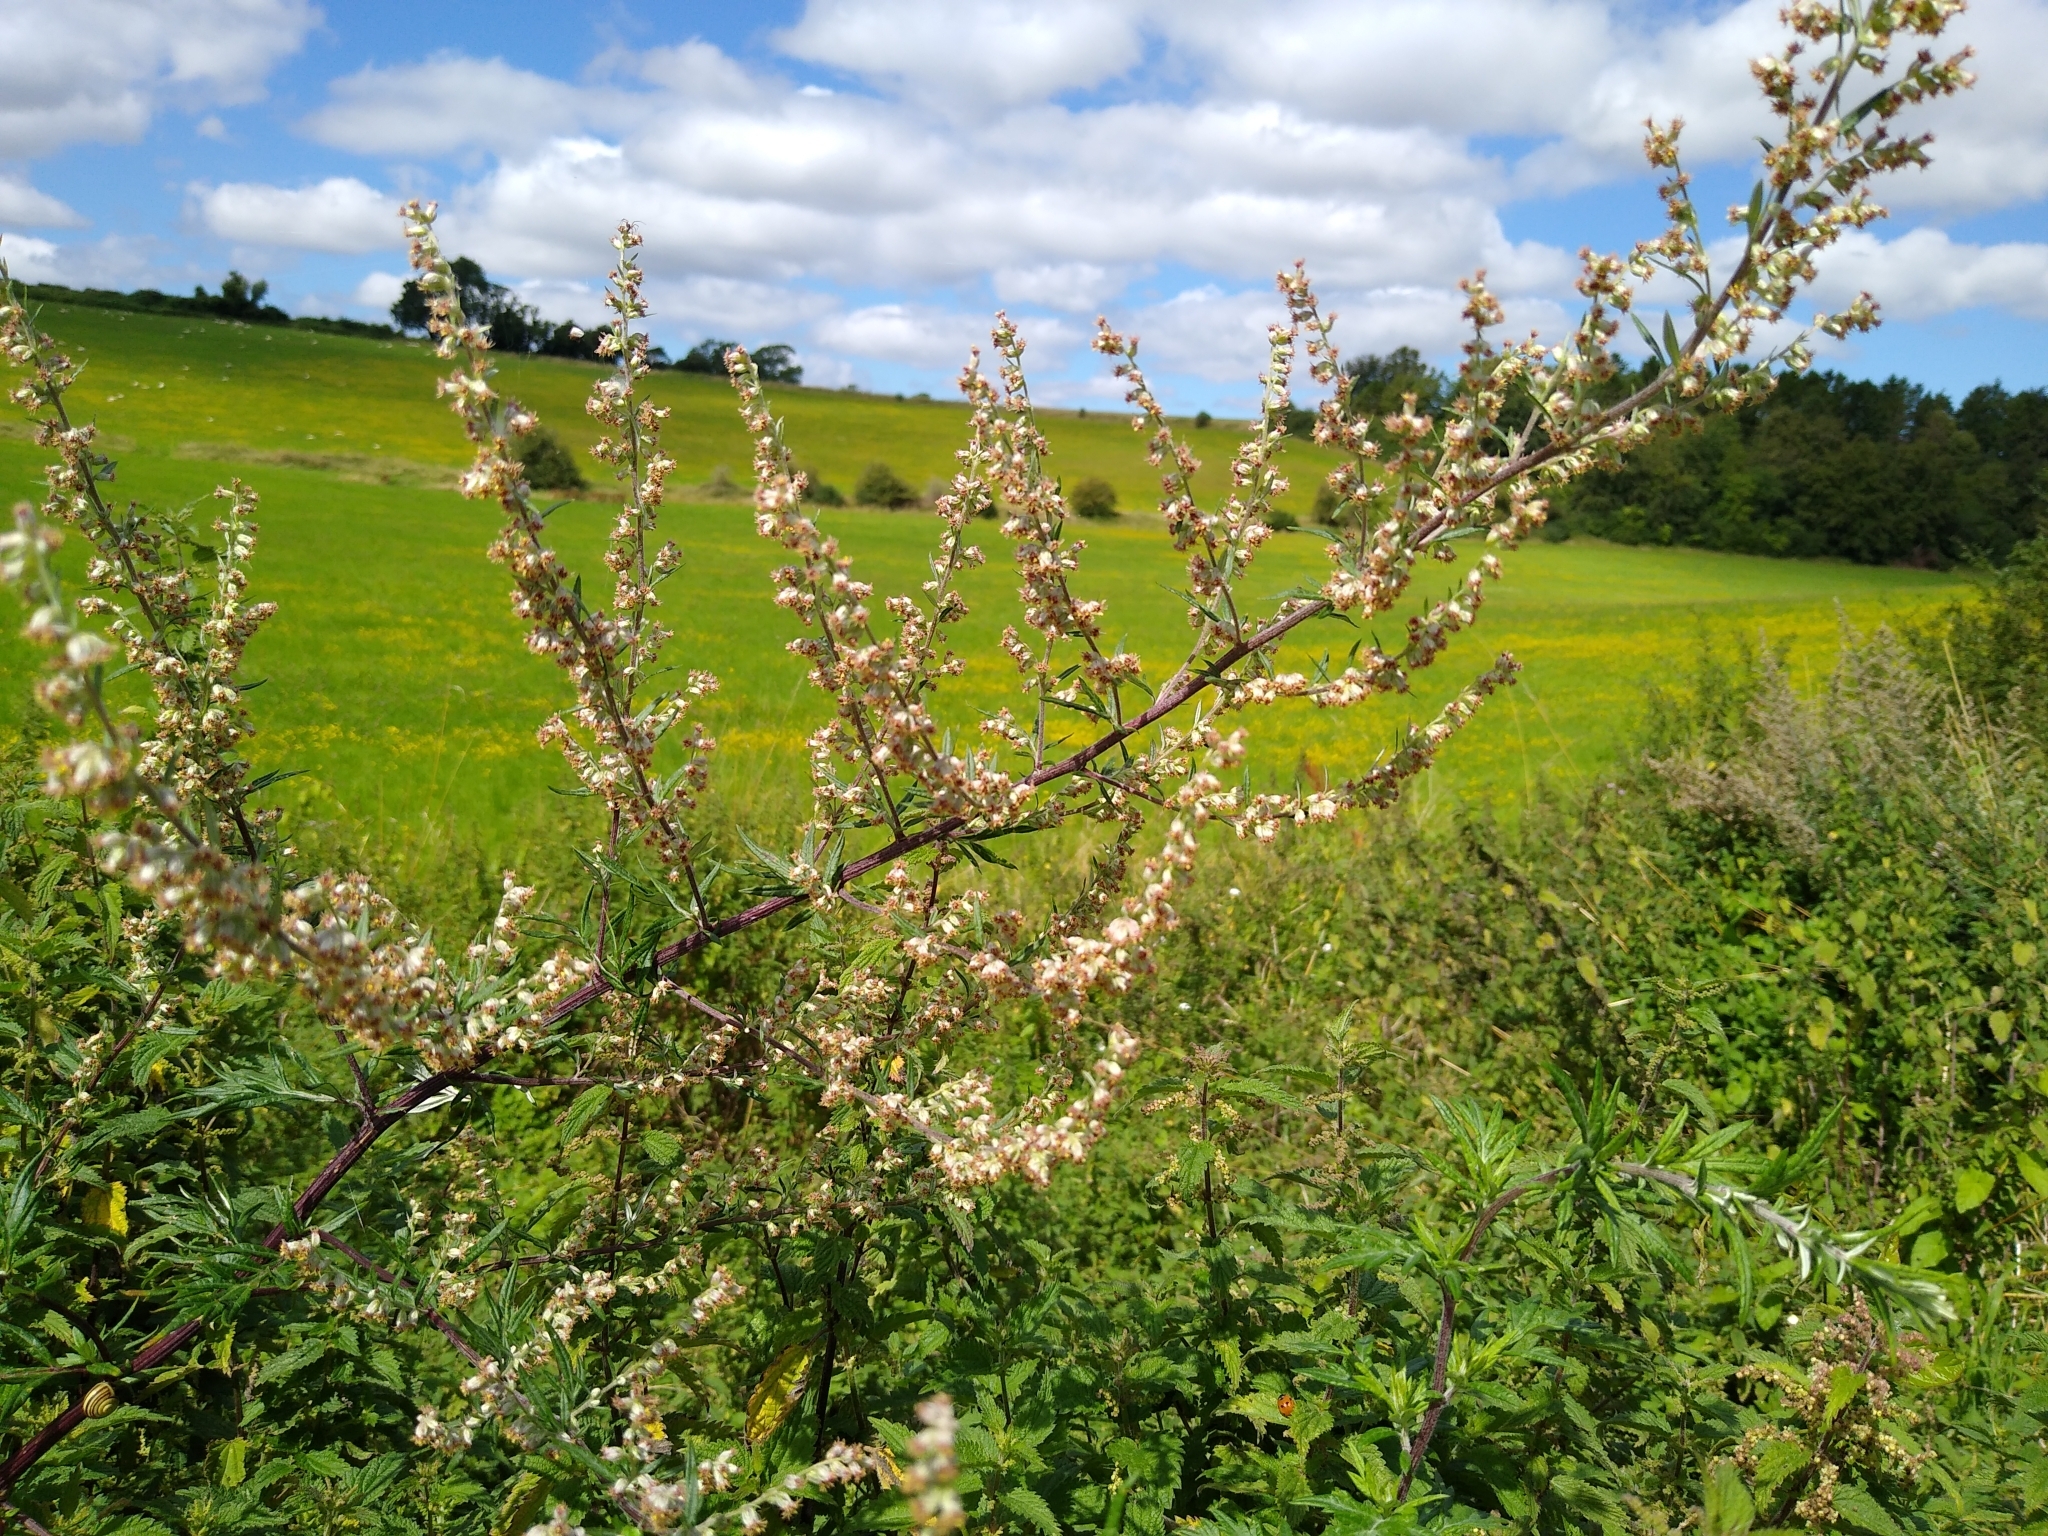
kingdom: Plantae
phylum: Tracheophyta
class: Magnoliopsida
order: Asterales
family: Asteraceae
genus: Artemisia
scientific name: Artemisia vulgaris
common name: Mugwort
